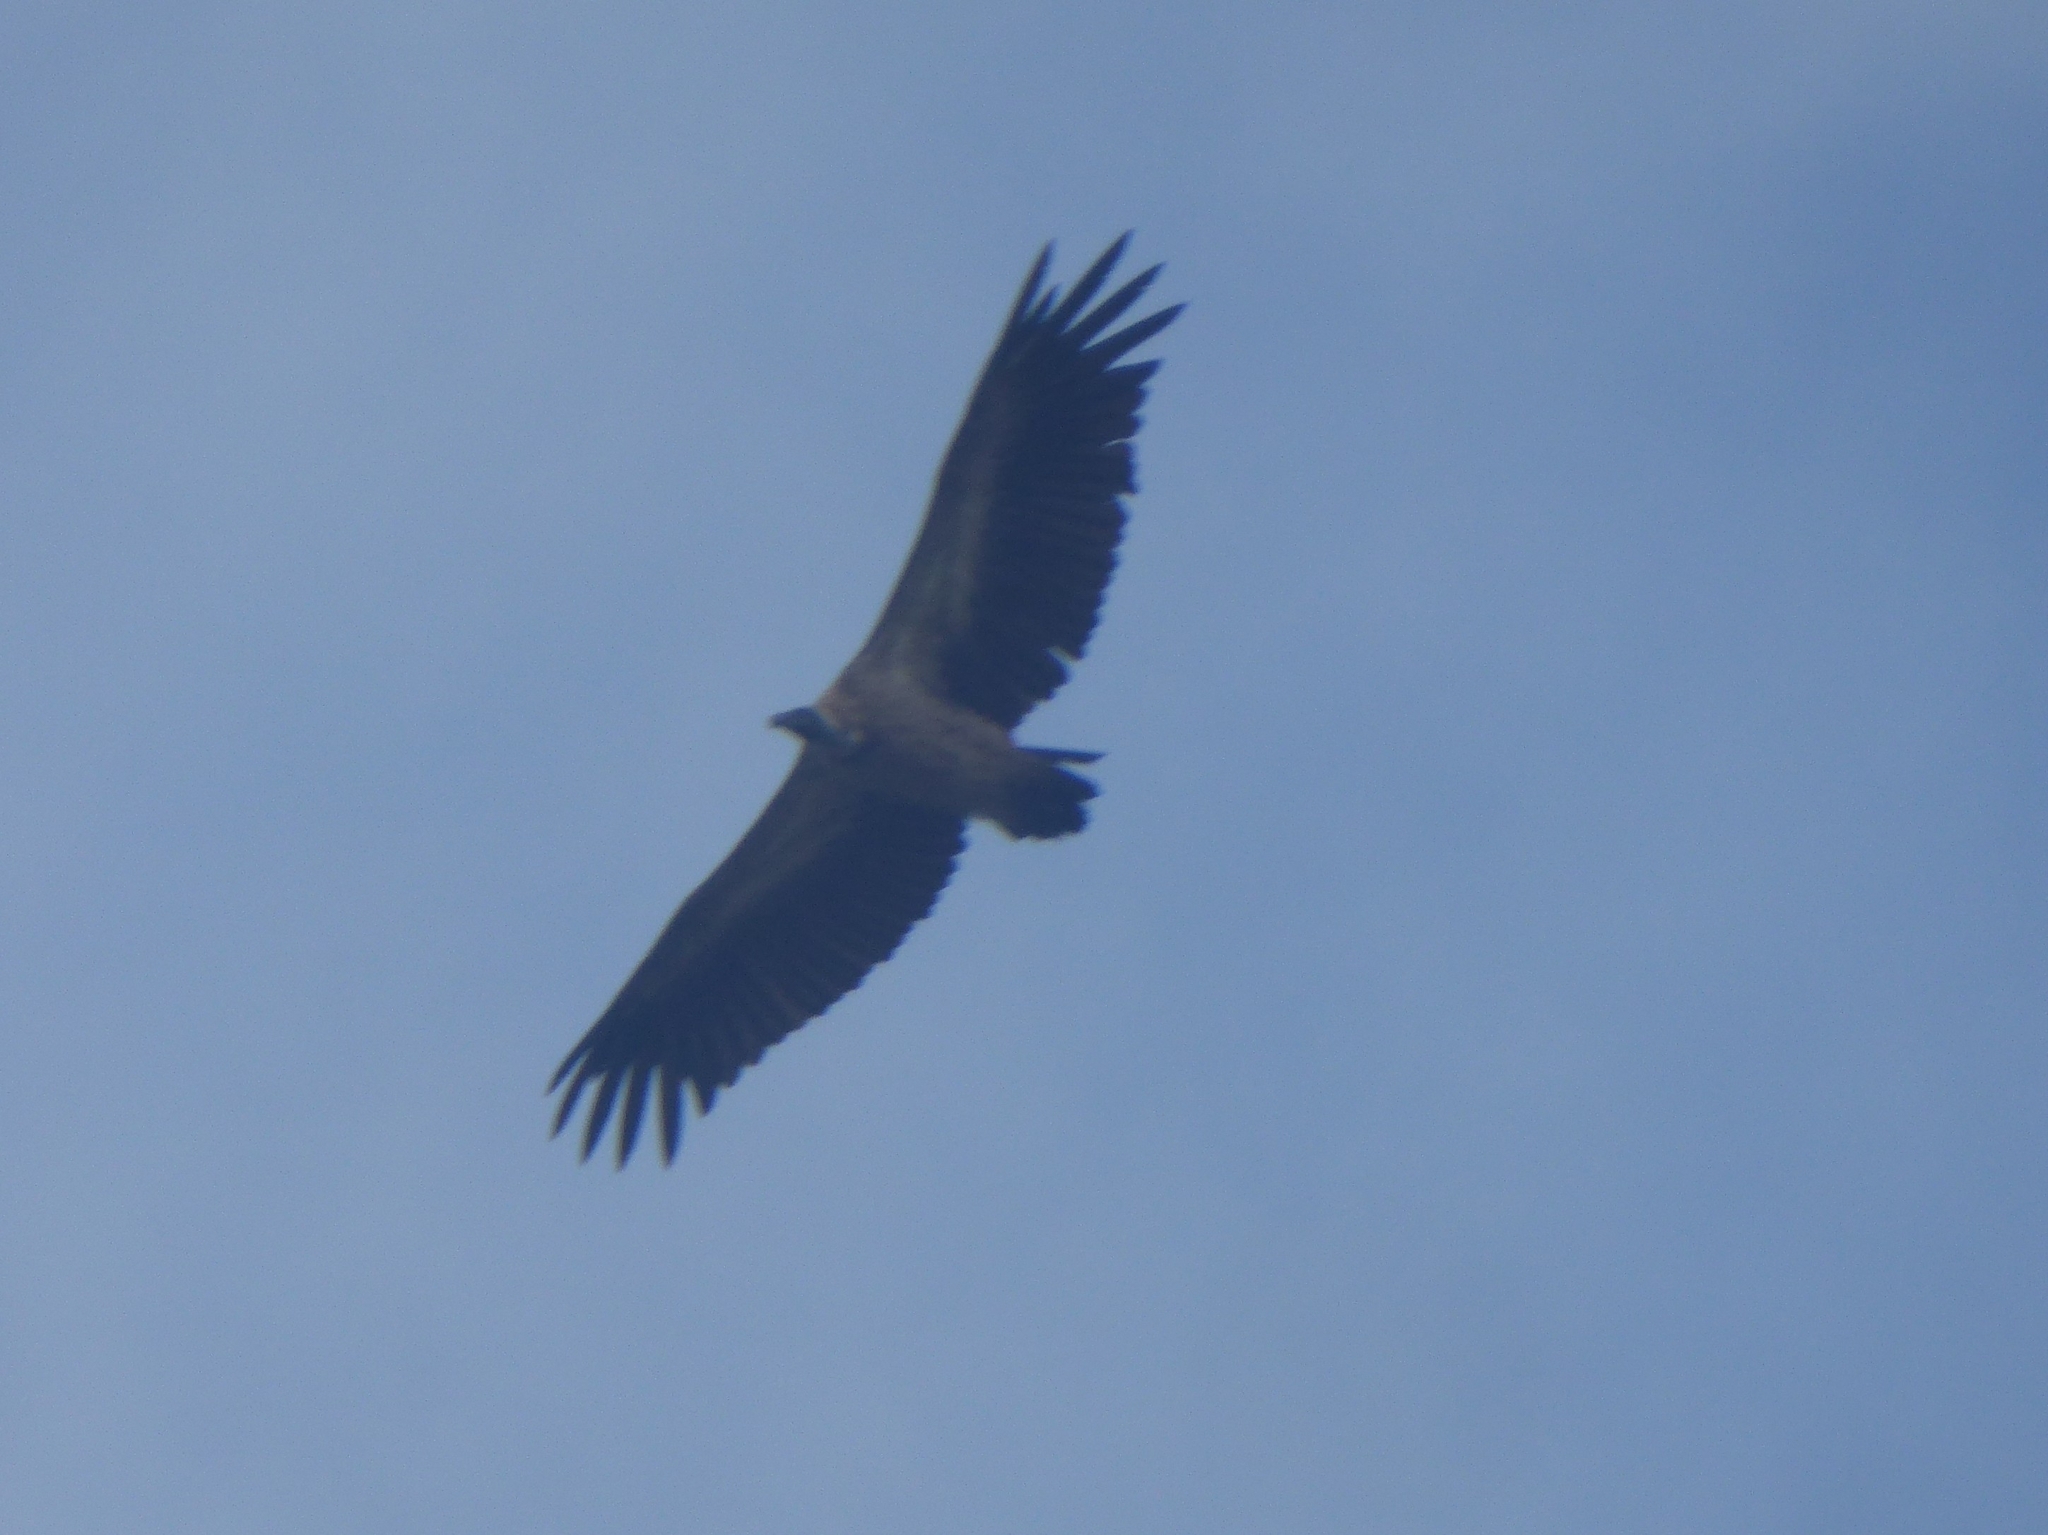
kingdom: Animalia
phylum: Chordata
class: Aves
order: Accipitriformes
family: Accipitridae
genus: Gyps
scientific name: Gyps africanus
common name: White-backed vulture
